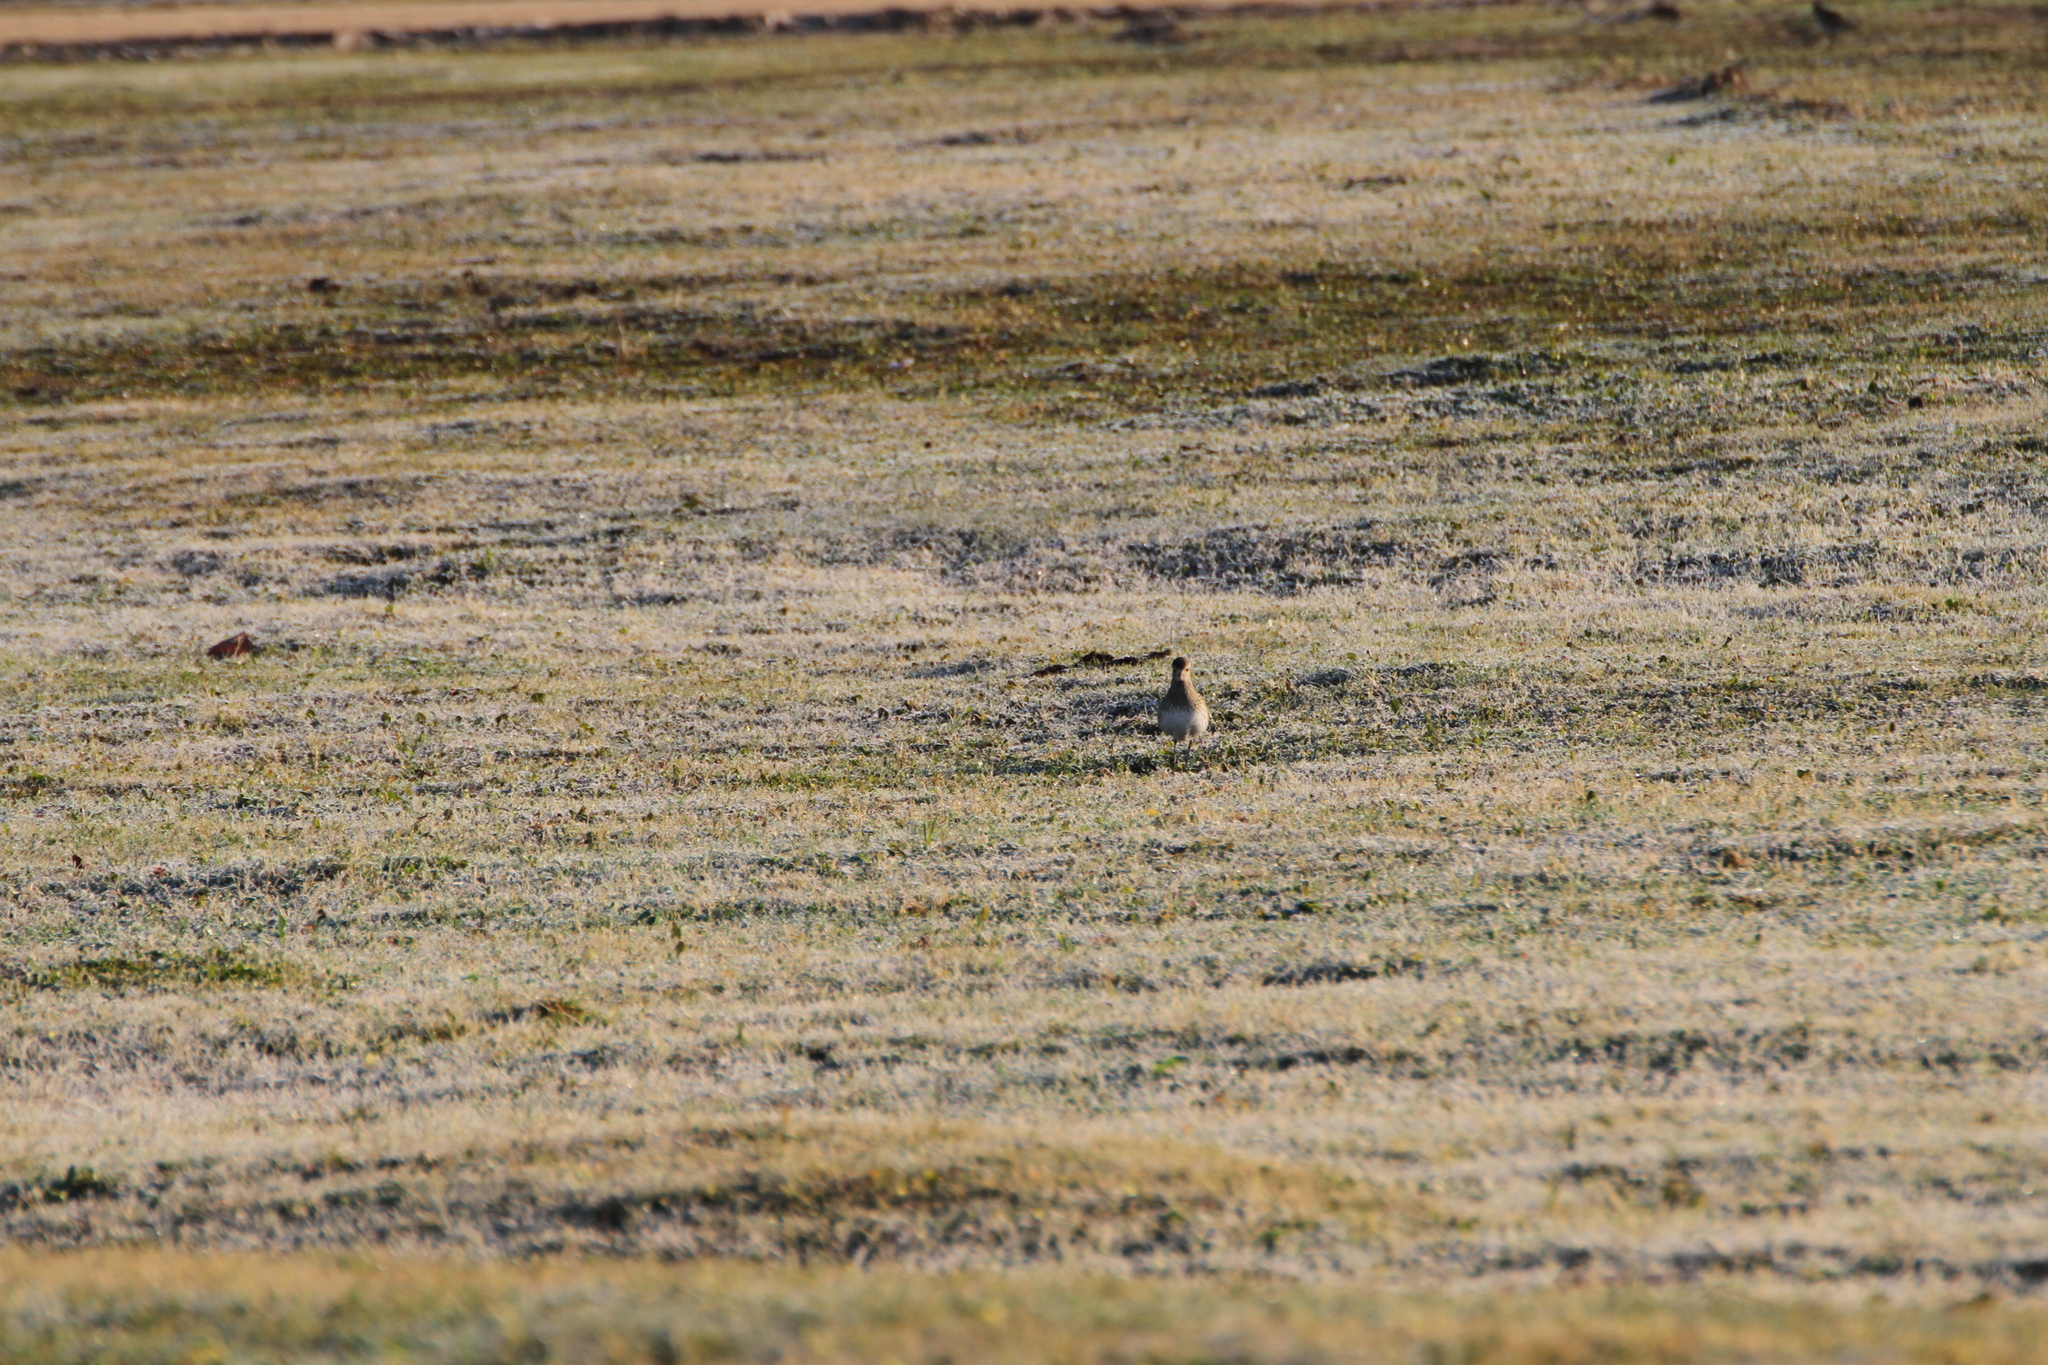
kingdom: Animalia
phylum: Chordata
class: Aves
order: Charadriiformes
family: Charadriidae
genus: Pluvialis
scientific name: Pluvialis apricaria
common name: European golden plover
